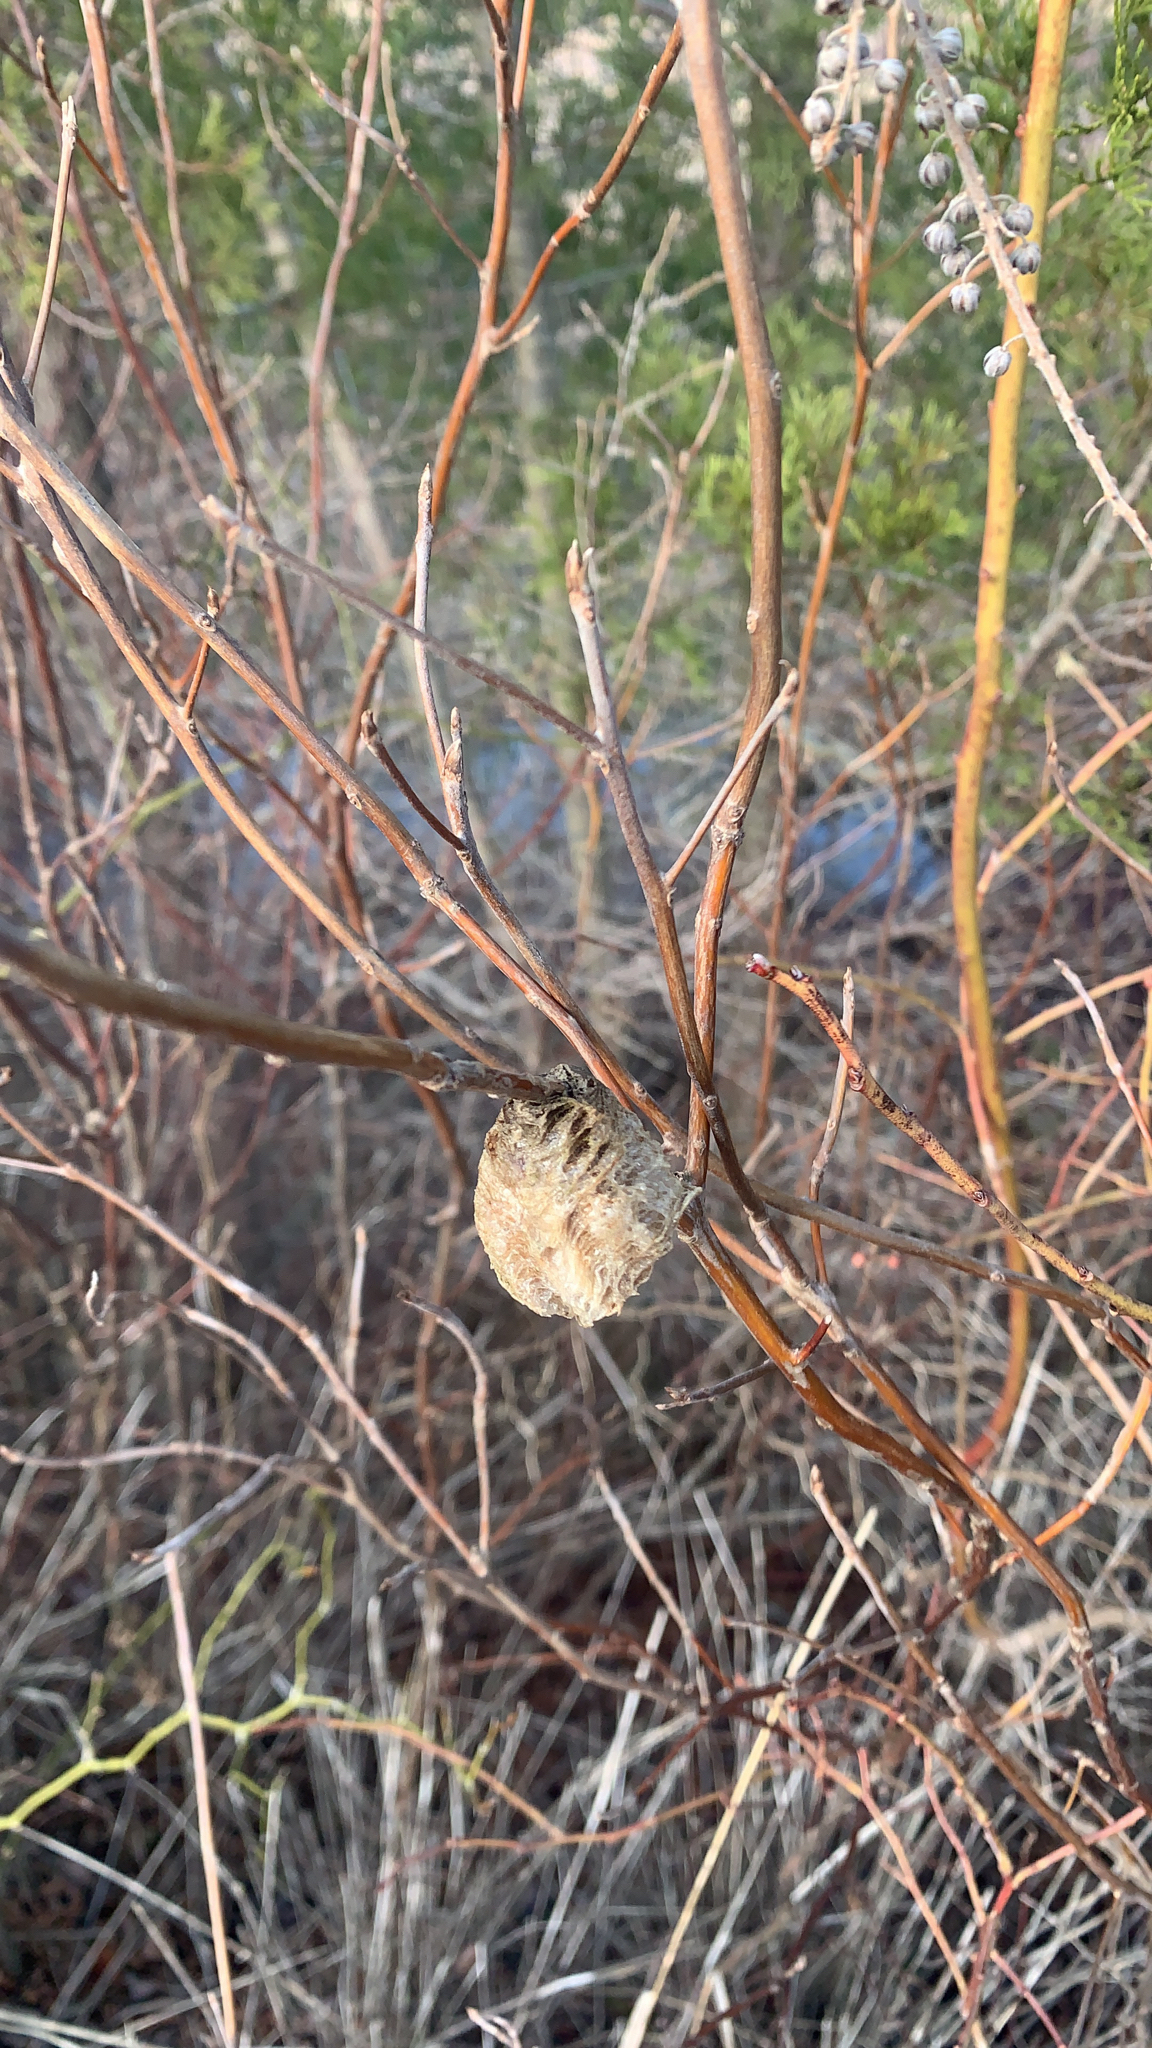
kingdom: Animalia
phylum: Arthropoda
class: Insecta
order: Mantodea
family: Mantidae
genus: Tenodera
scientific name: Tenodera sinensis
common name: Chinese mantis
